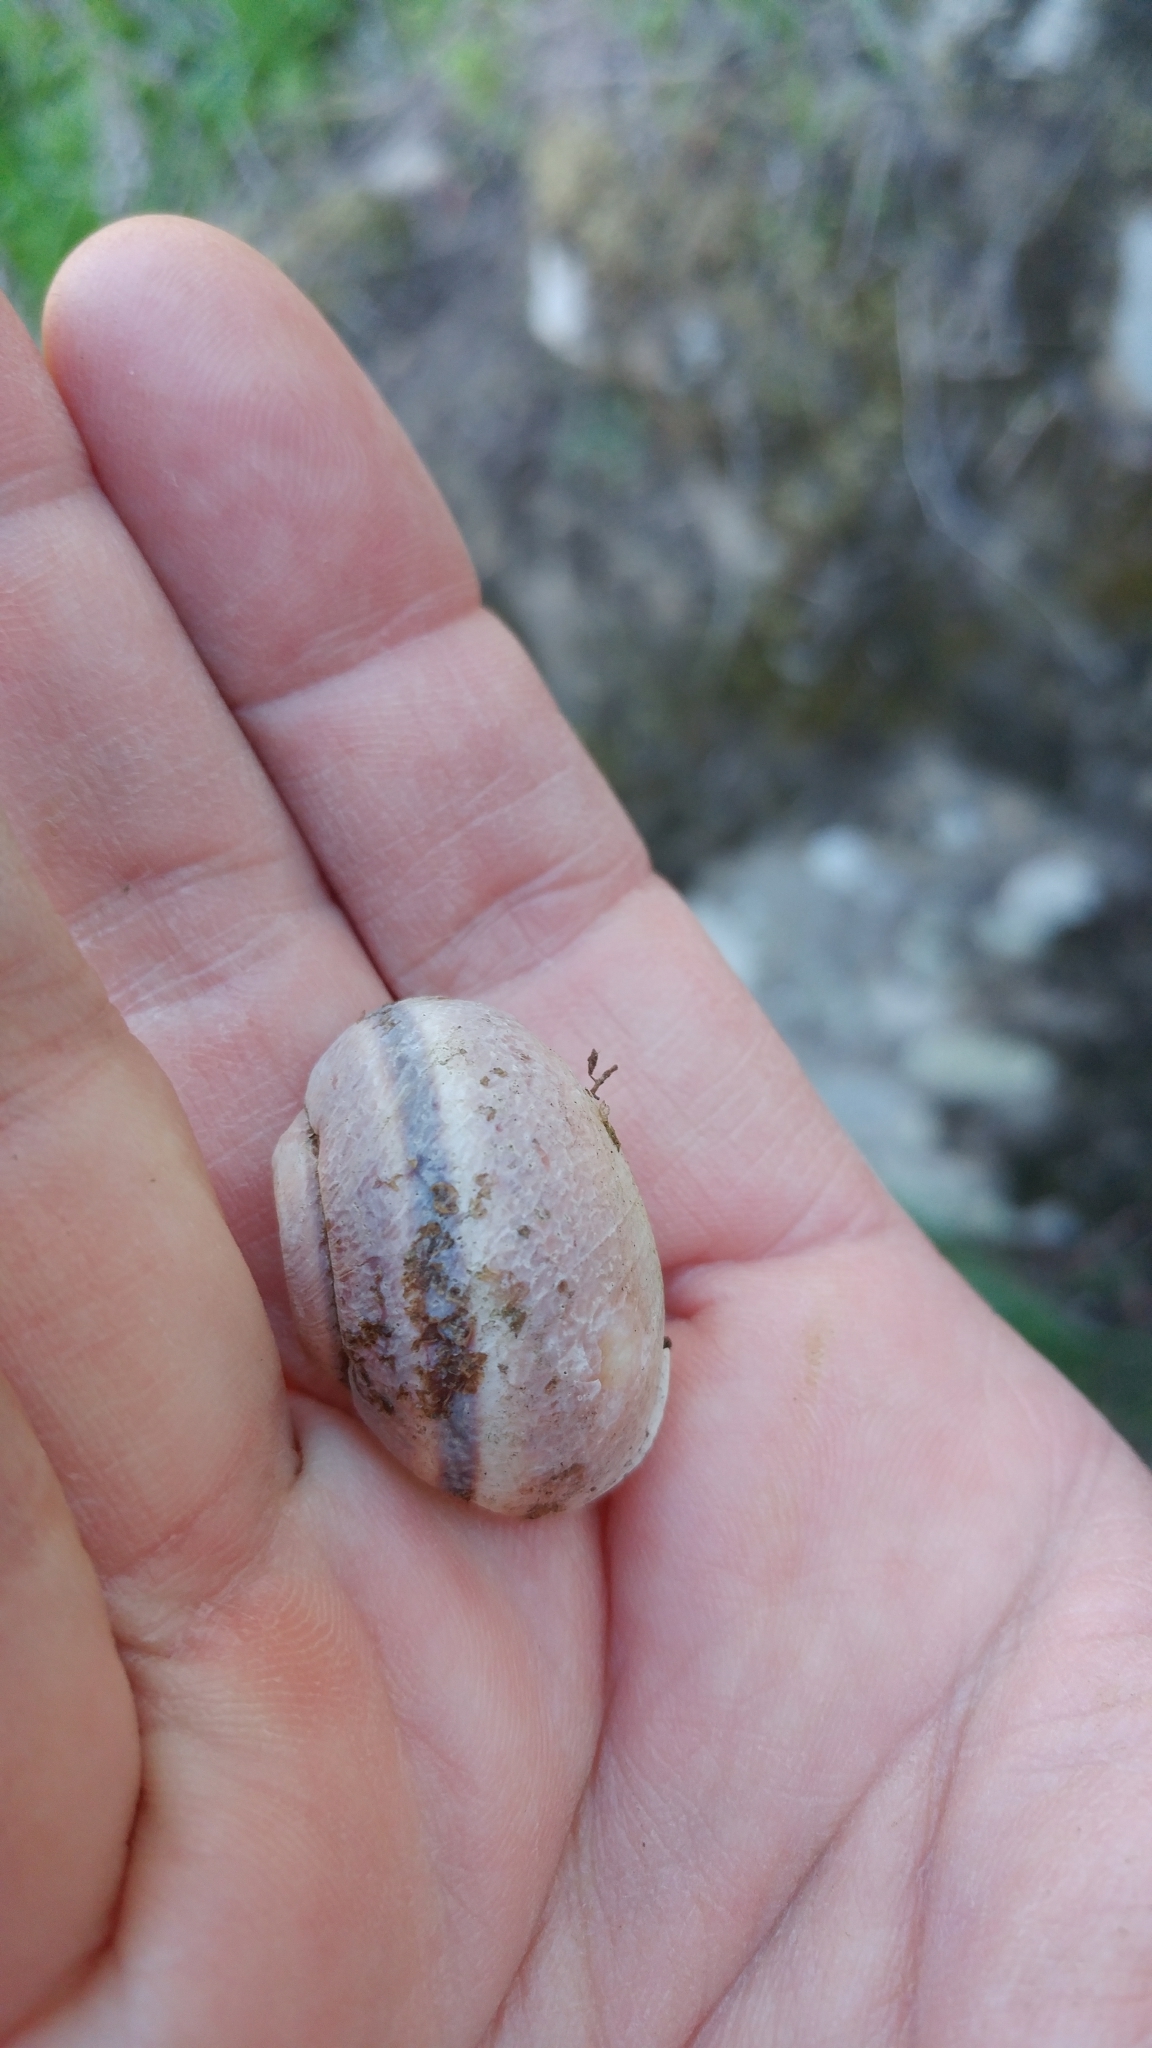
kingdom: Animalia
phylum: Mollusca
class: Gastropoda
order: Stylommatophora
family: Xanthonychidae
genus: Helminthoglypta
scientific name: Helminthoglypta tudiculata
